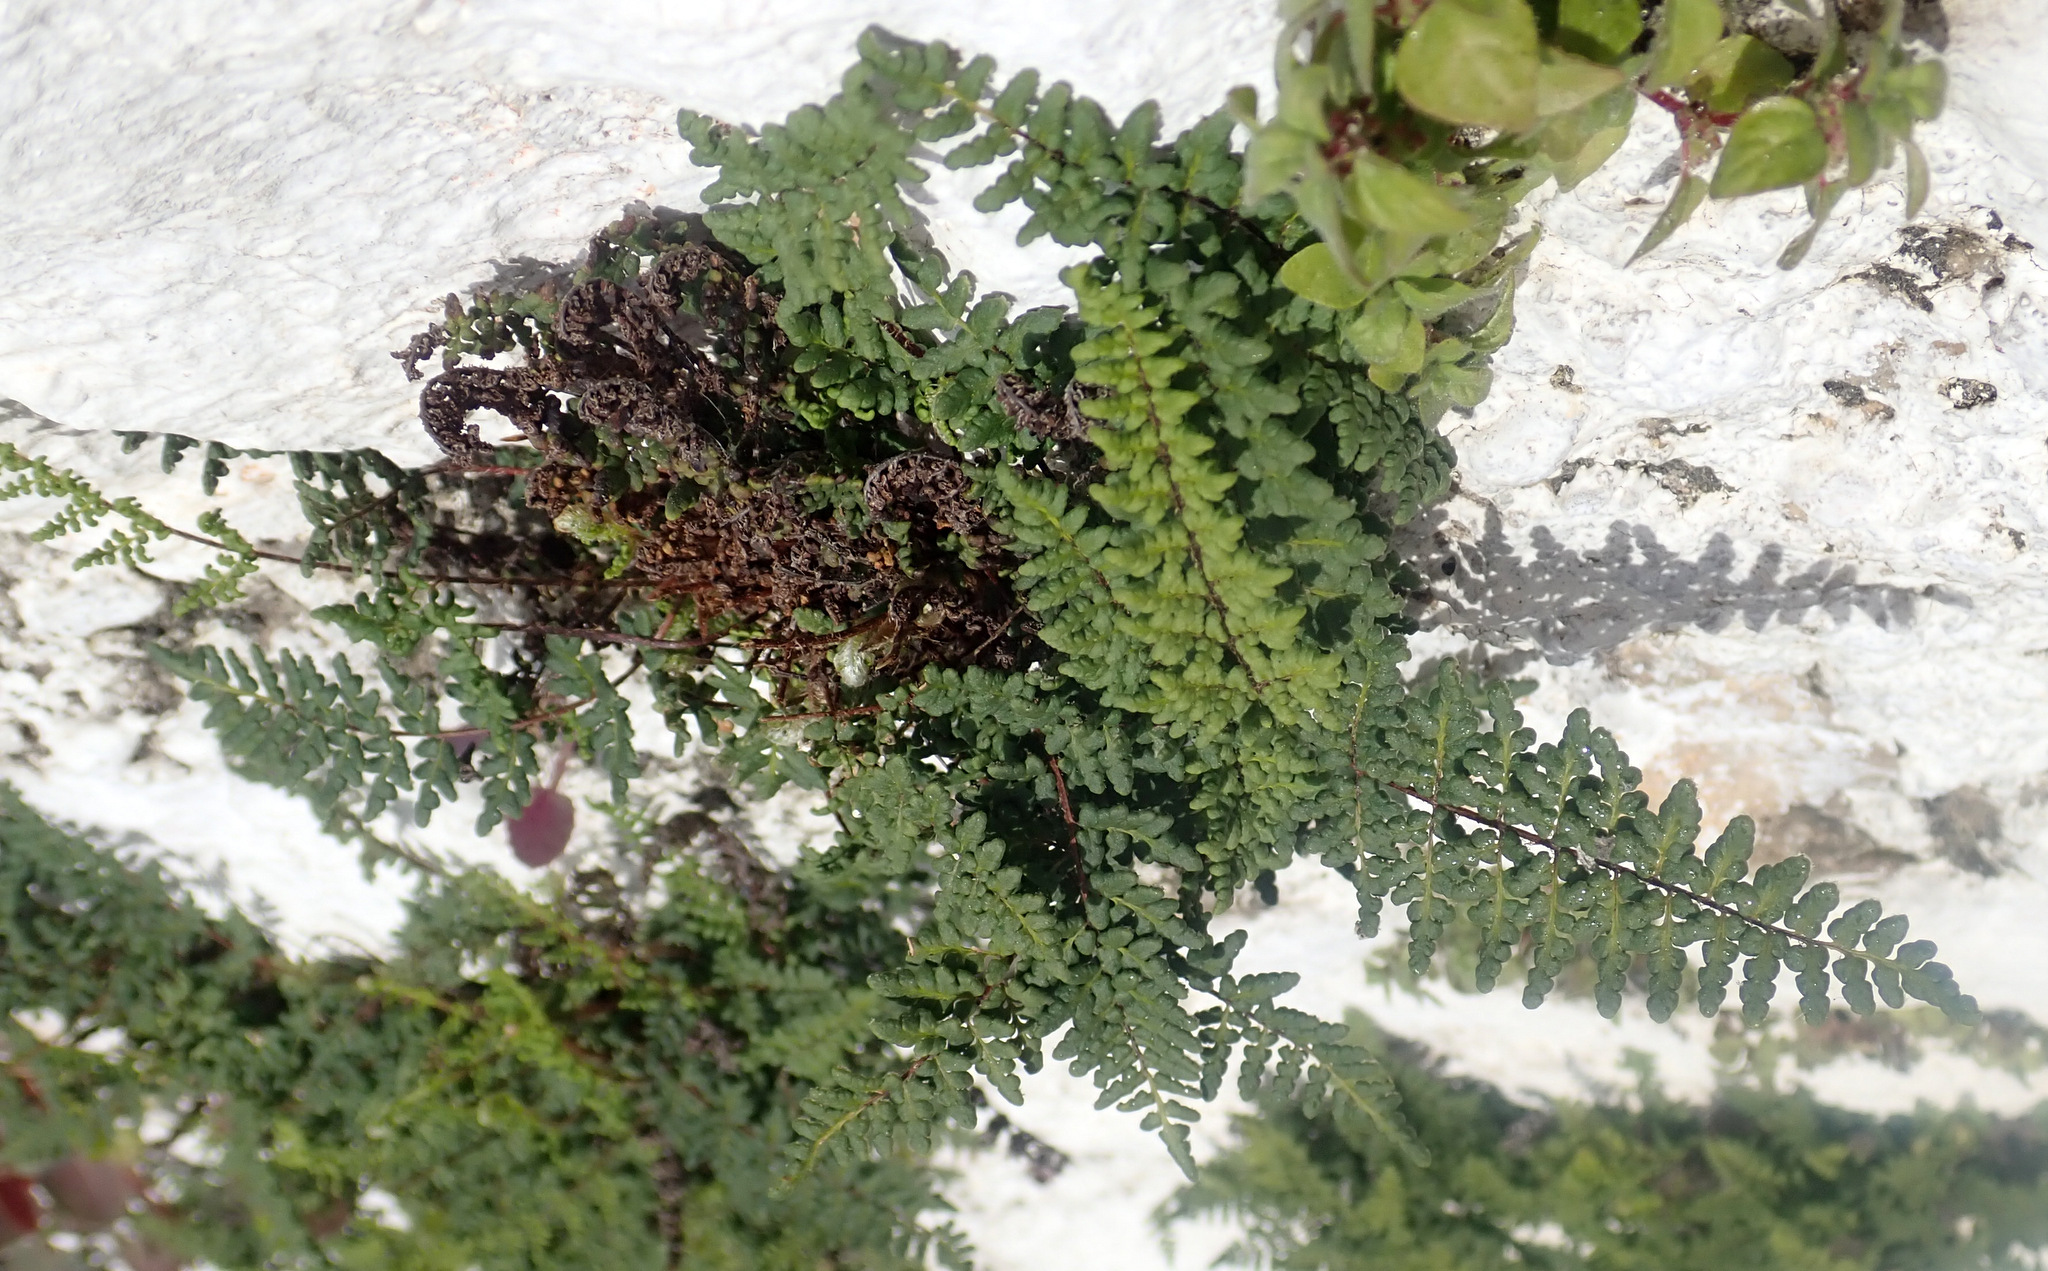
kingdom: Plantae
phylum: Tracheophyta
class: Polypodiopsida
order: Polypodiales
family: Pteridaceae
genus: Oeosporangium
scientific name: Oeosporangium pteridioides
